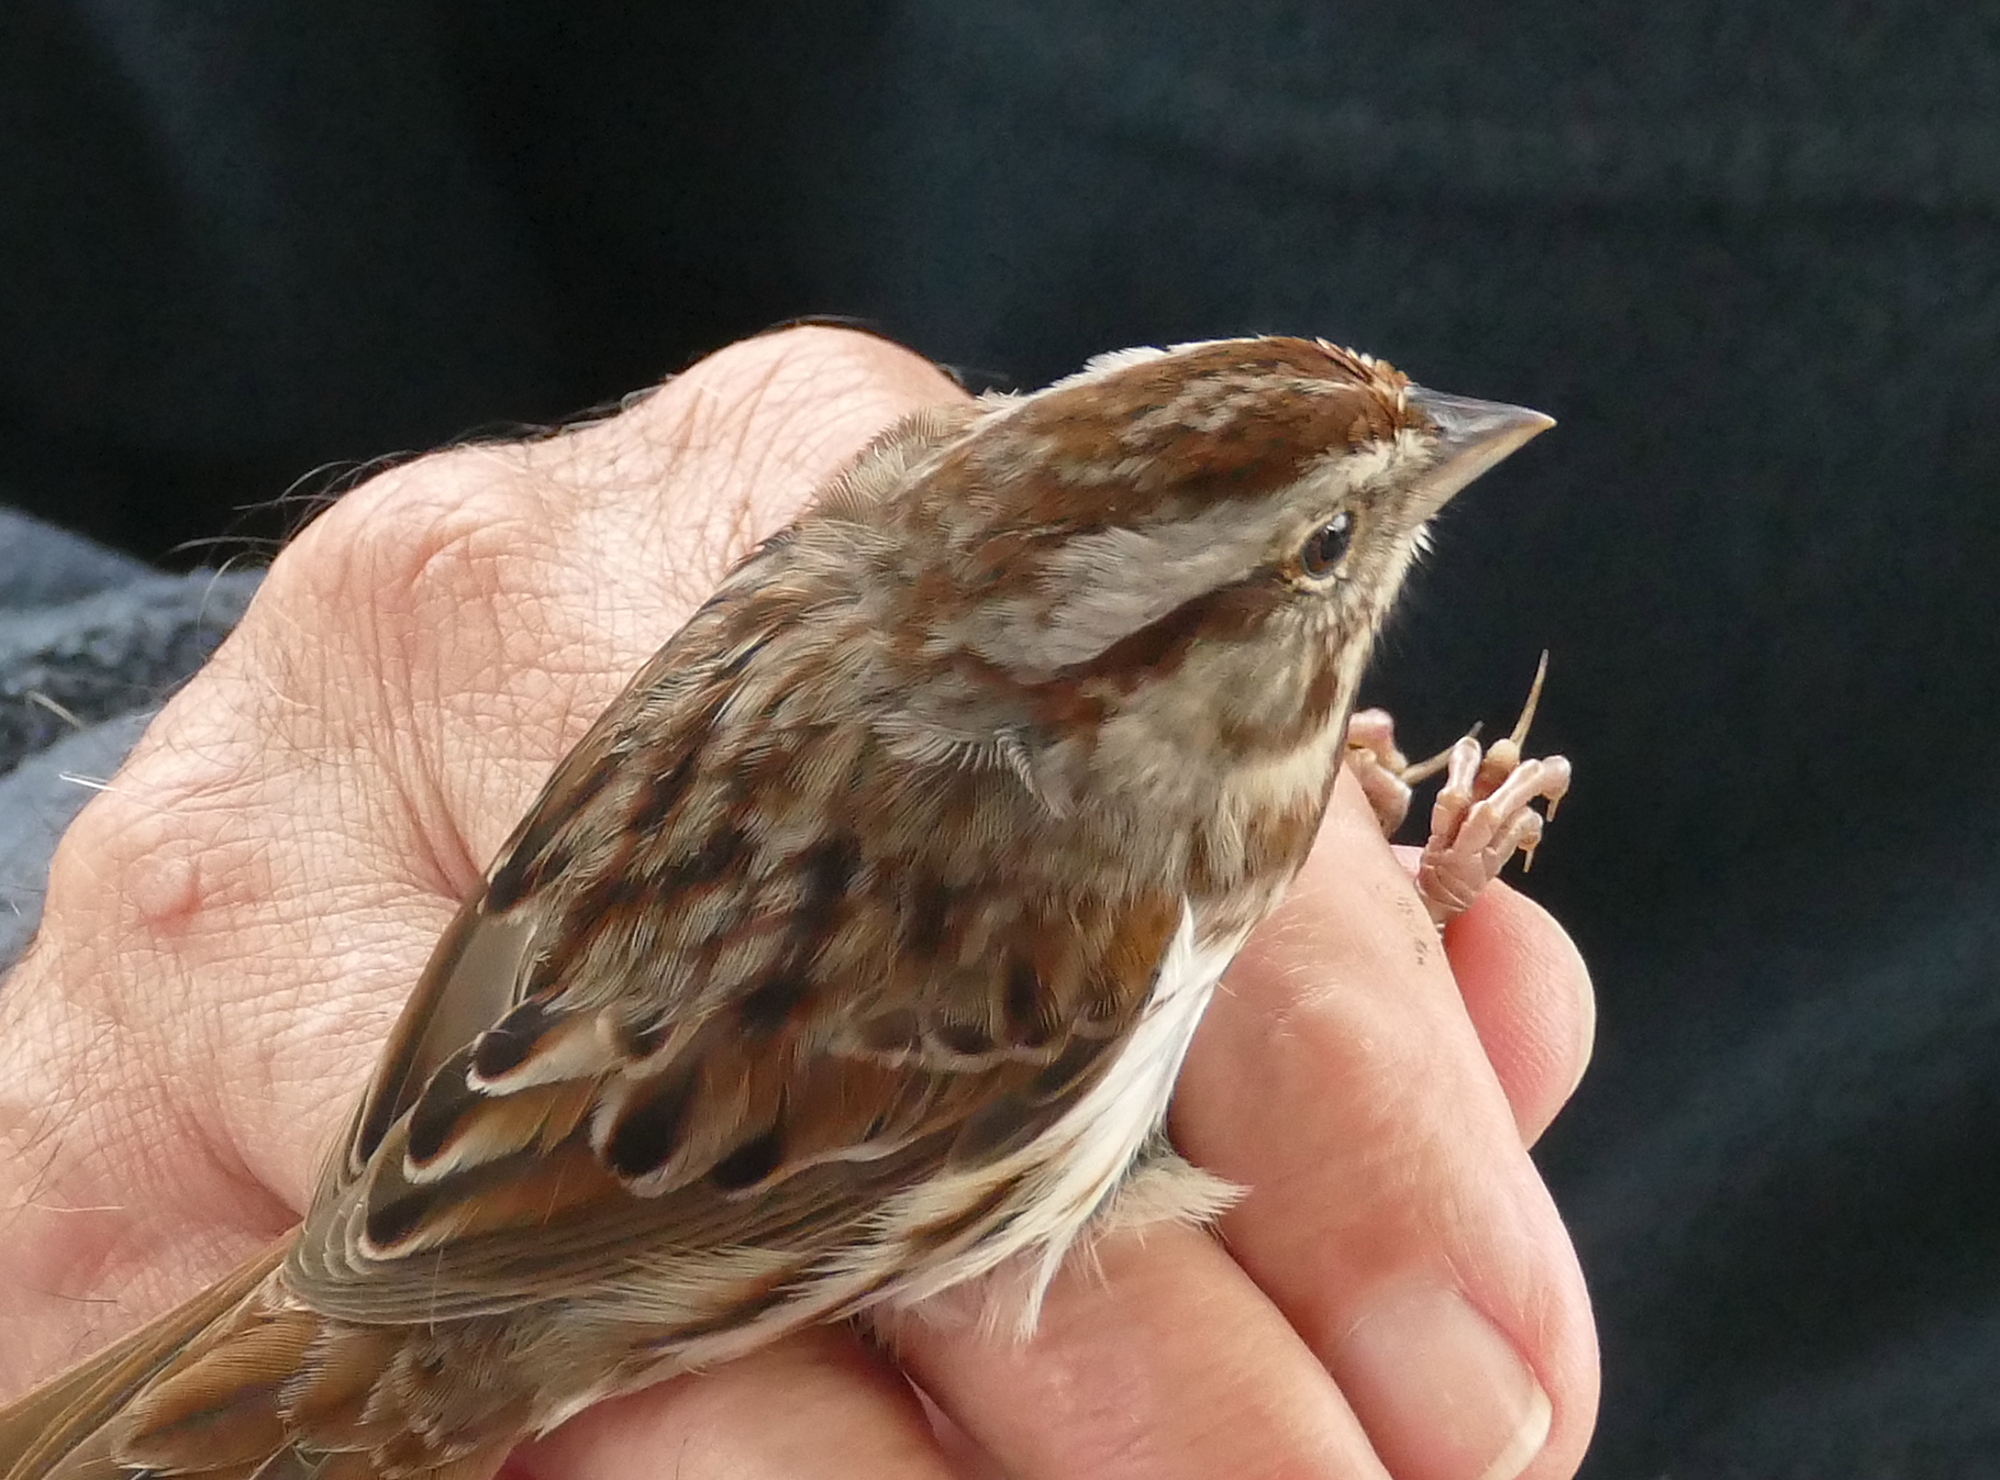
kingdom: Animalia
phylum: Chordata
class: Aves
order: Passeriformes
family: Passerellidae
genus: Melospiza
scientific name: Melospiza melodia
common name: Song sparrow
